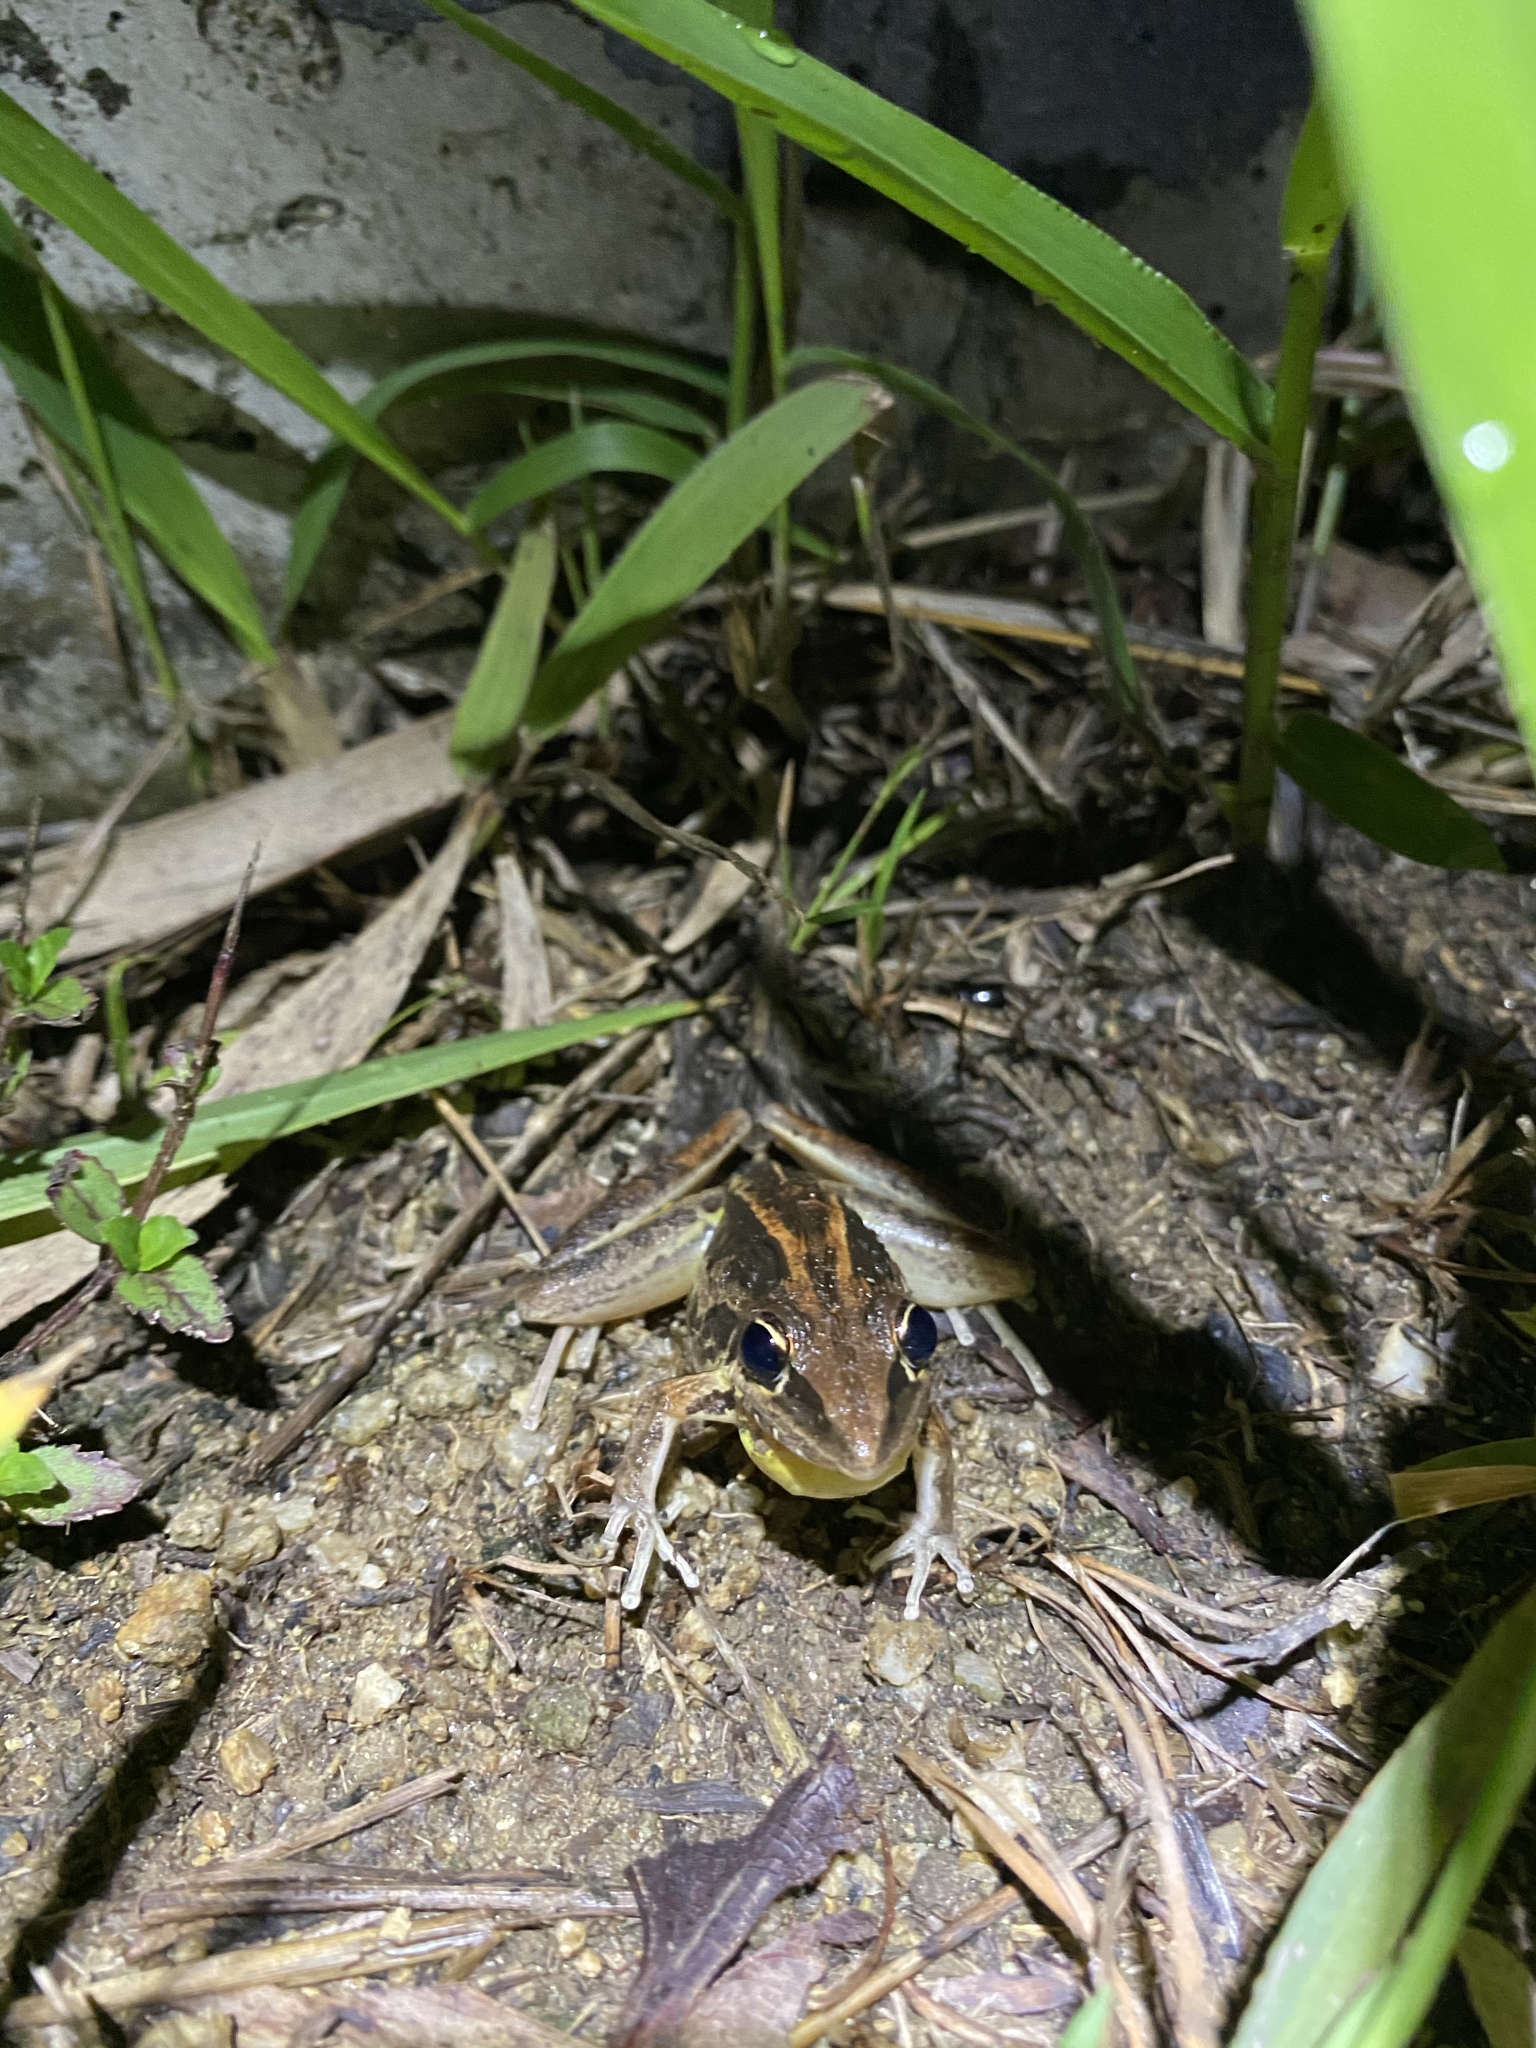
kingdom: Animalia
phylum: Chordata
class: Amphibia
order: Anura
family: Pelodryadidae
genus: Litoria
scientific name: Litoria nasuta
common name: Rocket frog
